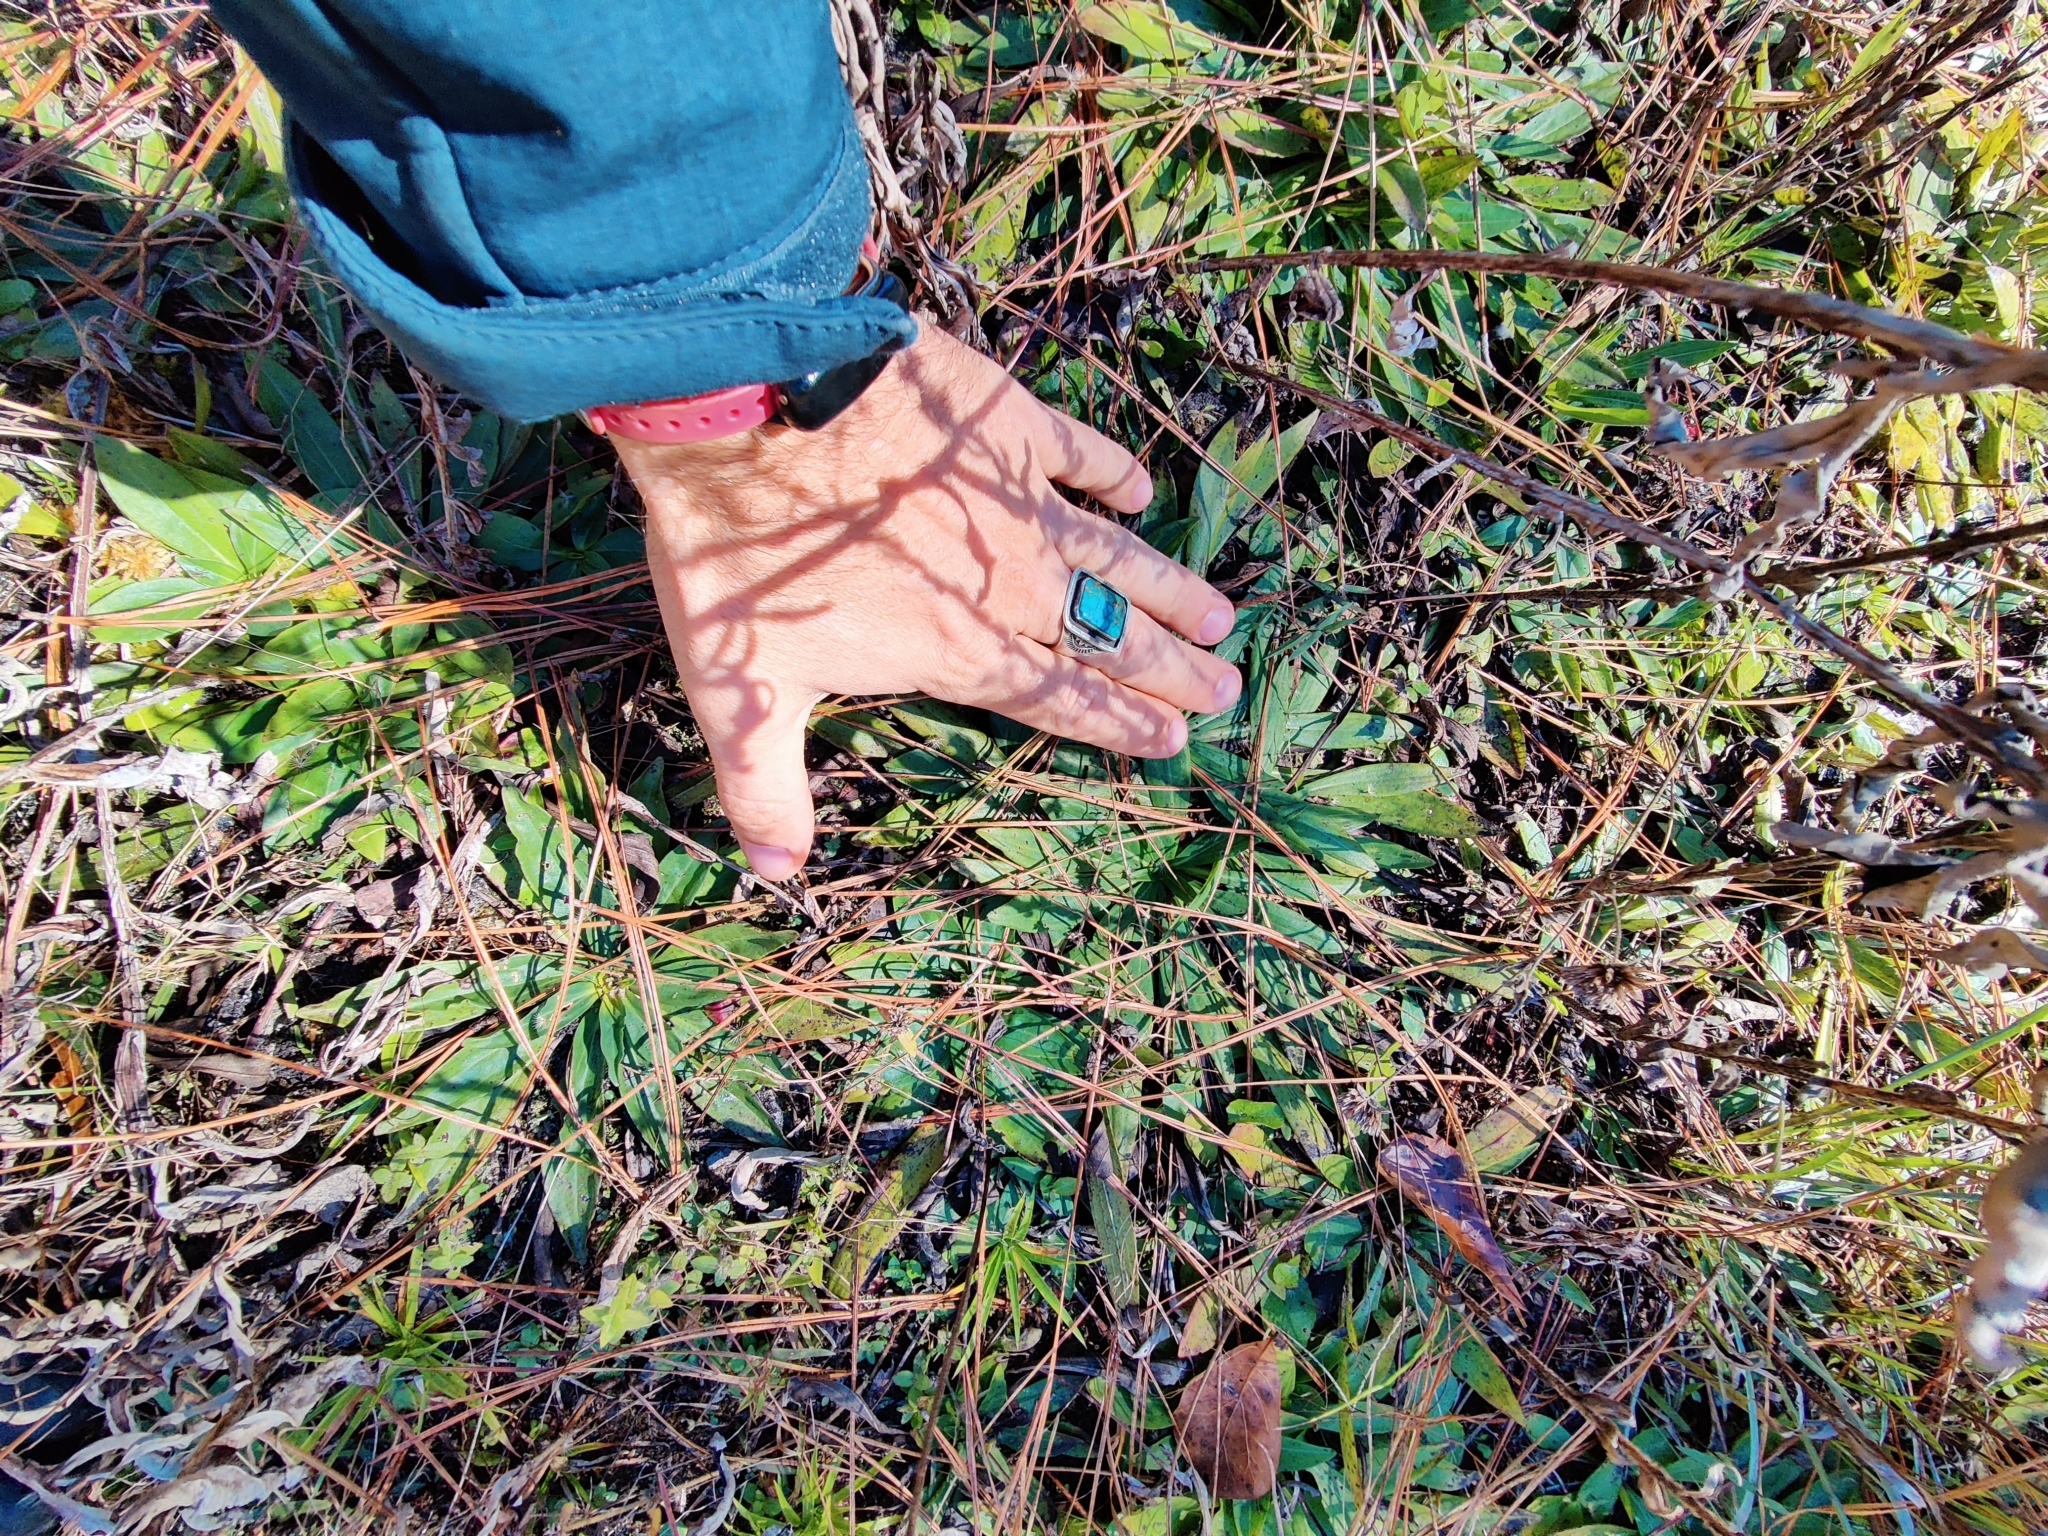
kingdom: Plantae
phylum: Tracheophyta
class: Magnoliopsida
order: Asterales
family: Asteraceae
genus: Carphephorus
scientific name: Carphephorus paniculatus
